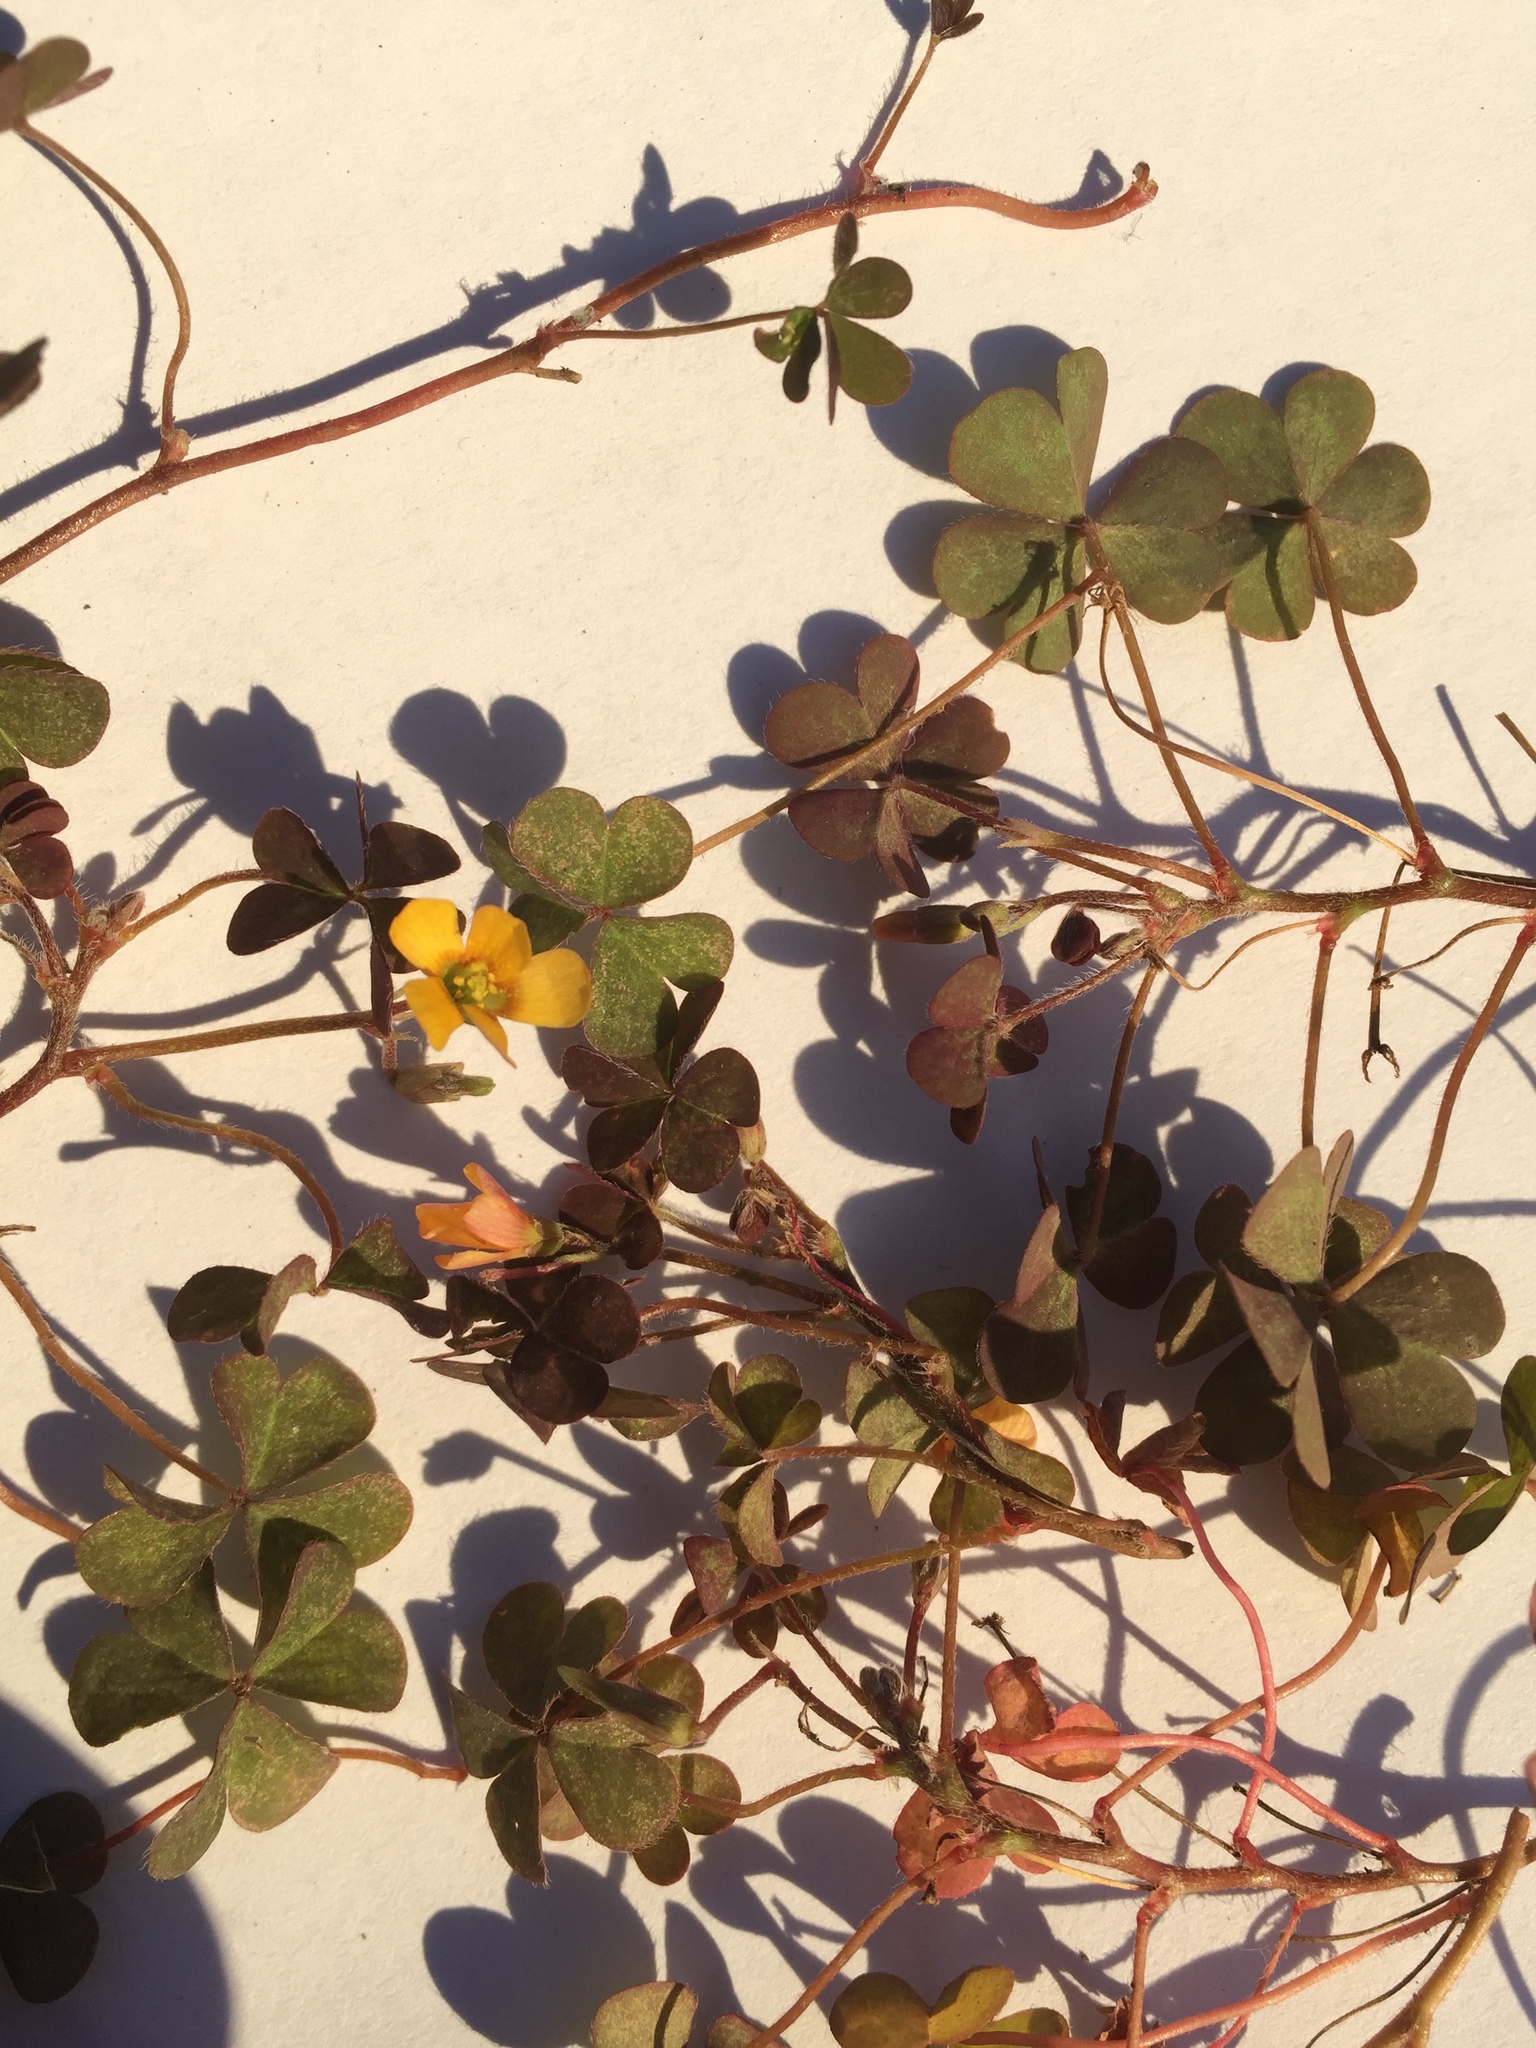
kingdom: Plantae
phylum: Tracheophyta
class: Magnoliopsida
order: Oxalidales
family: Oxalidaceae
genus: Oxalis
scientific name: Oxalis corniculata
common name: Procumbent yellow-sorrel
